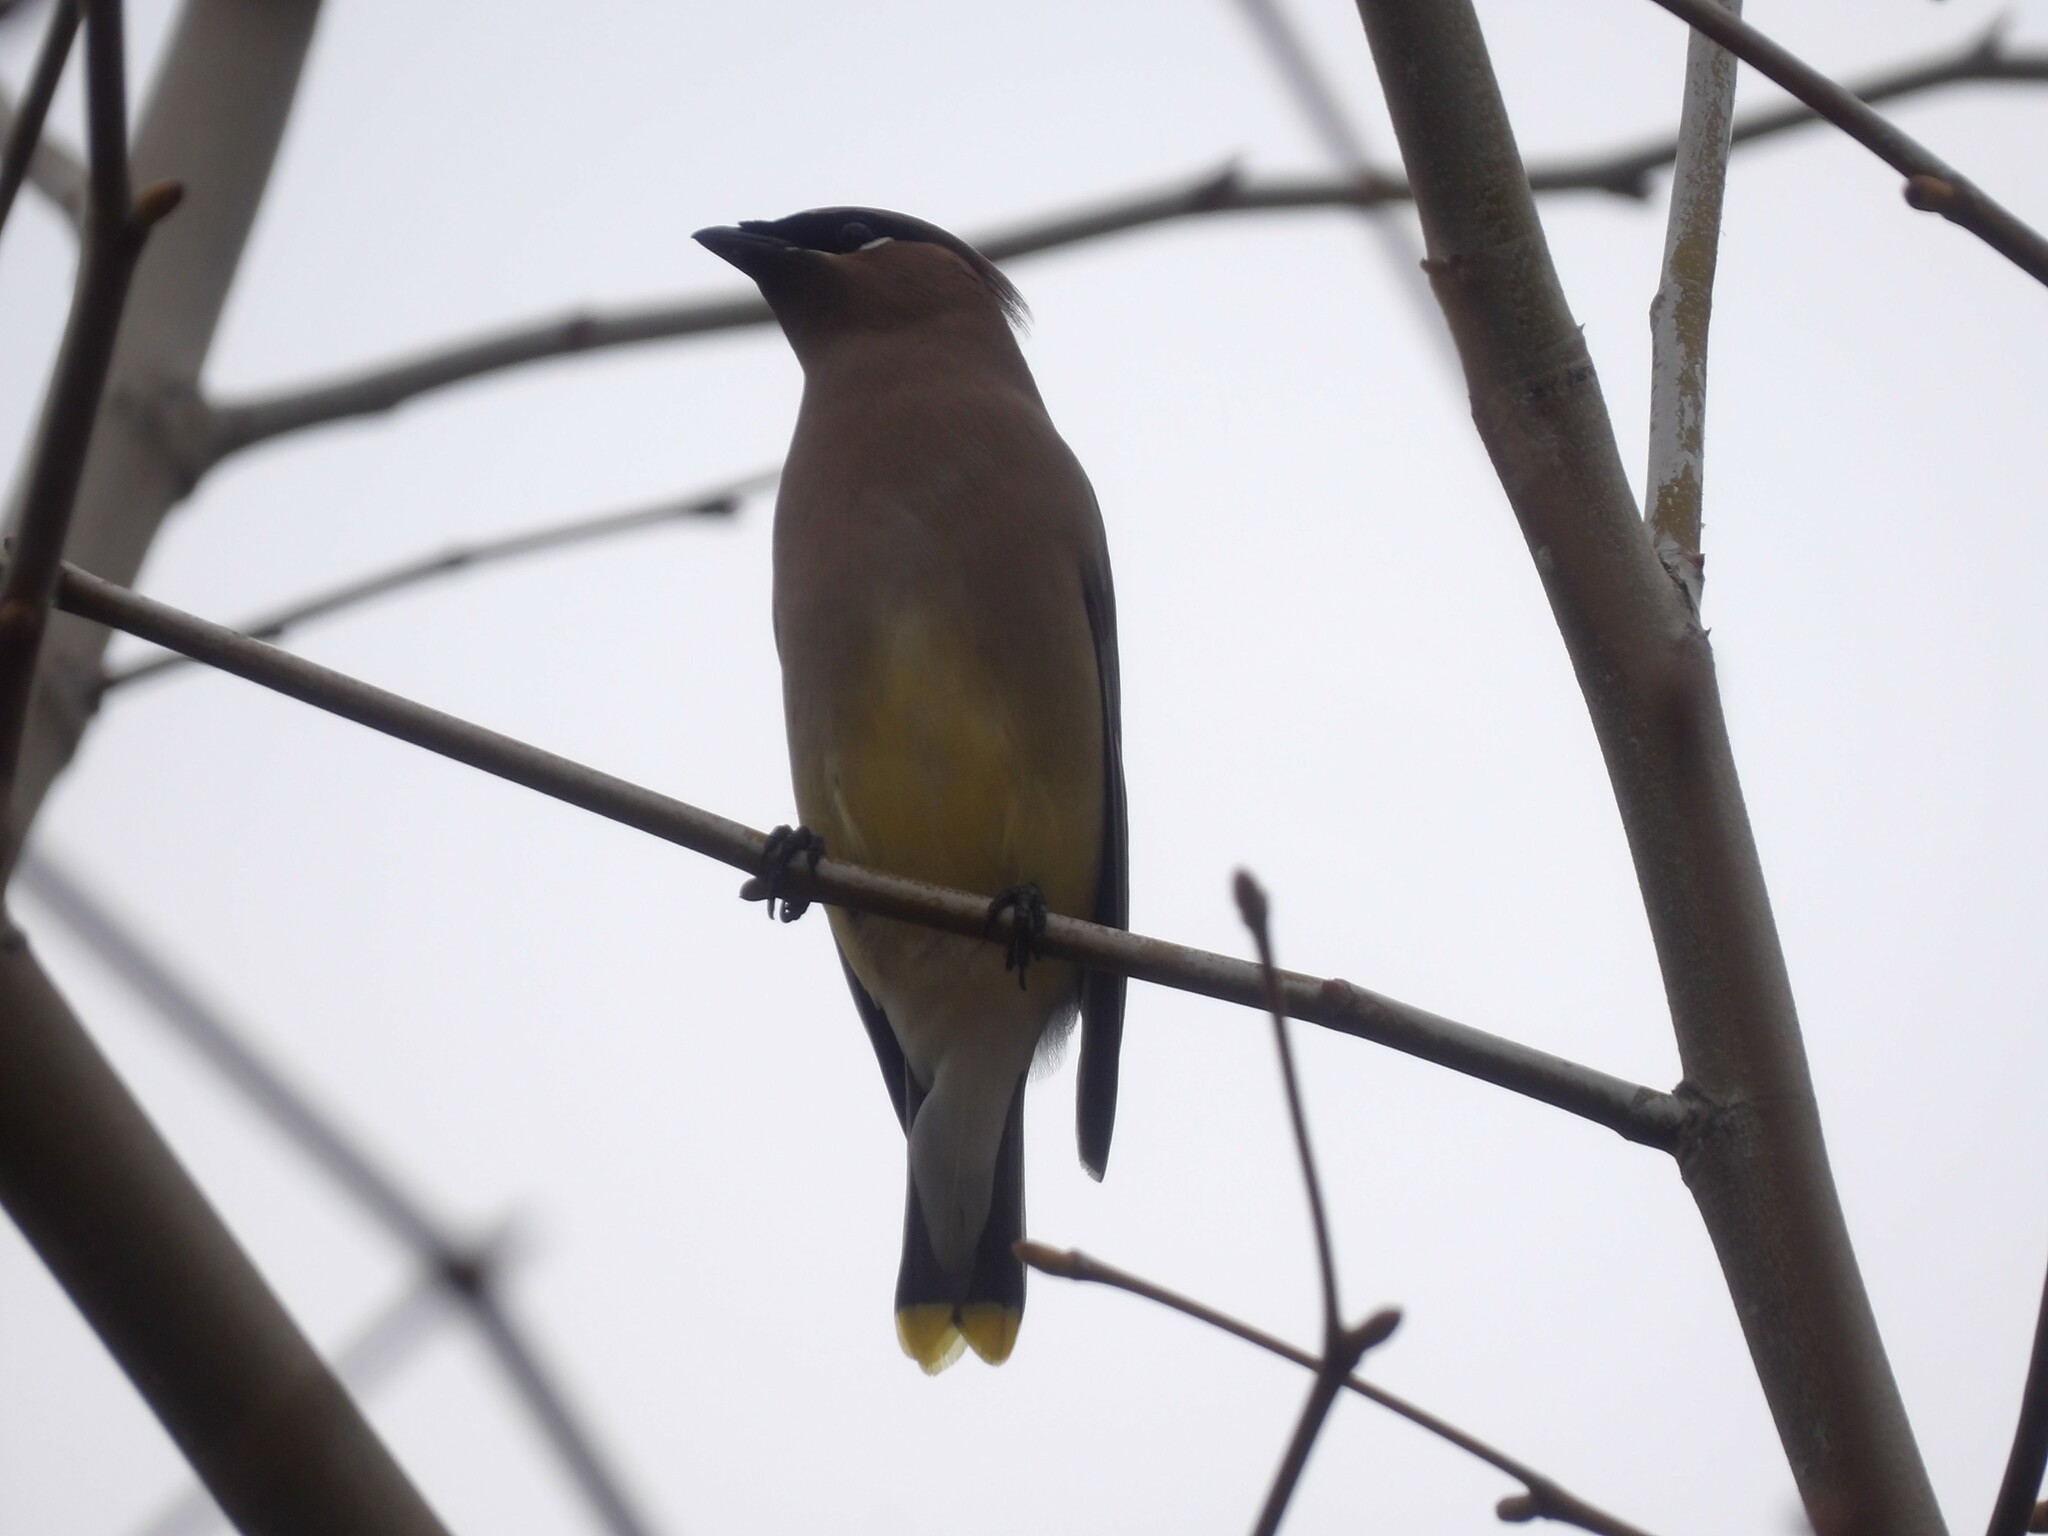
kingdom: Animalia
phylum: Chordata
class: Aves
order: Passeriformes
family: Bombycillidae
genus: Bombycilla
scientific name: Bombycilla cedrorum
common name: Cedar waxwing
